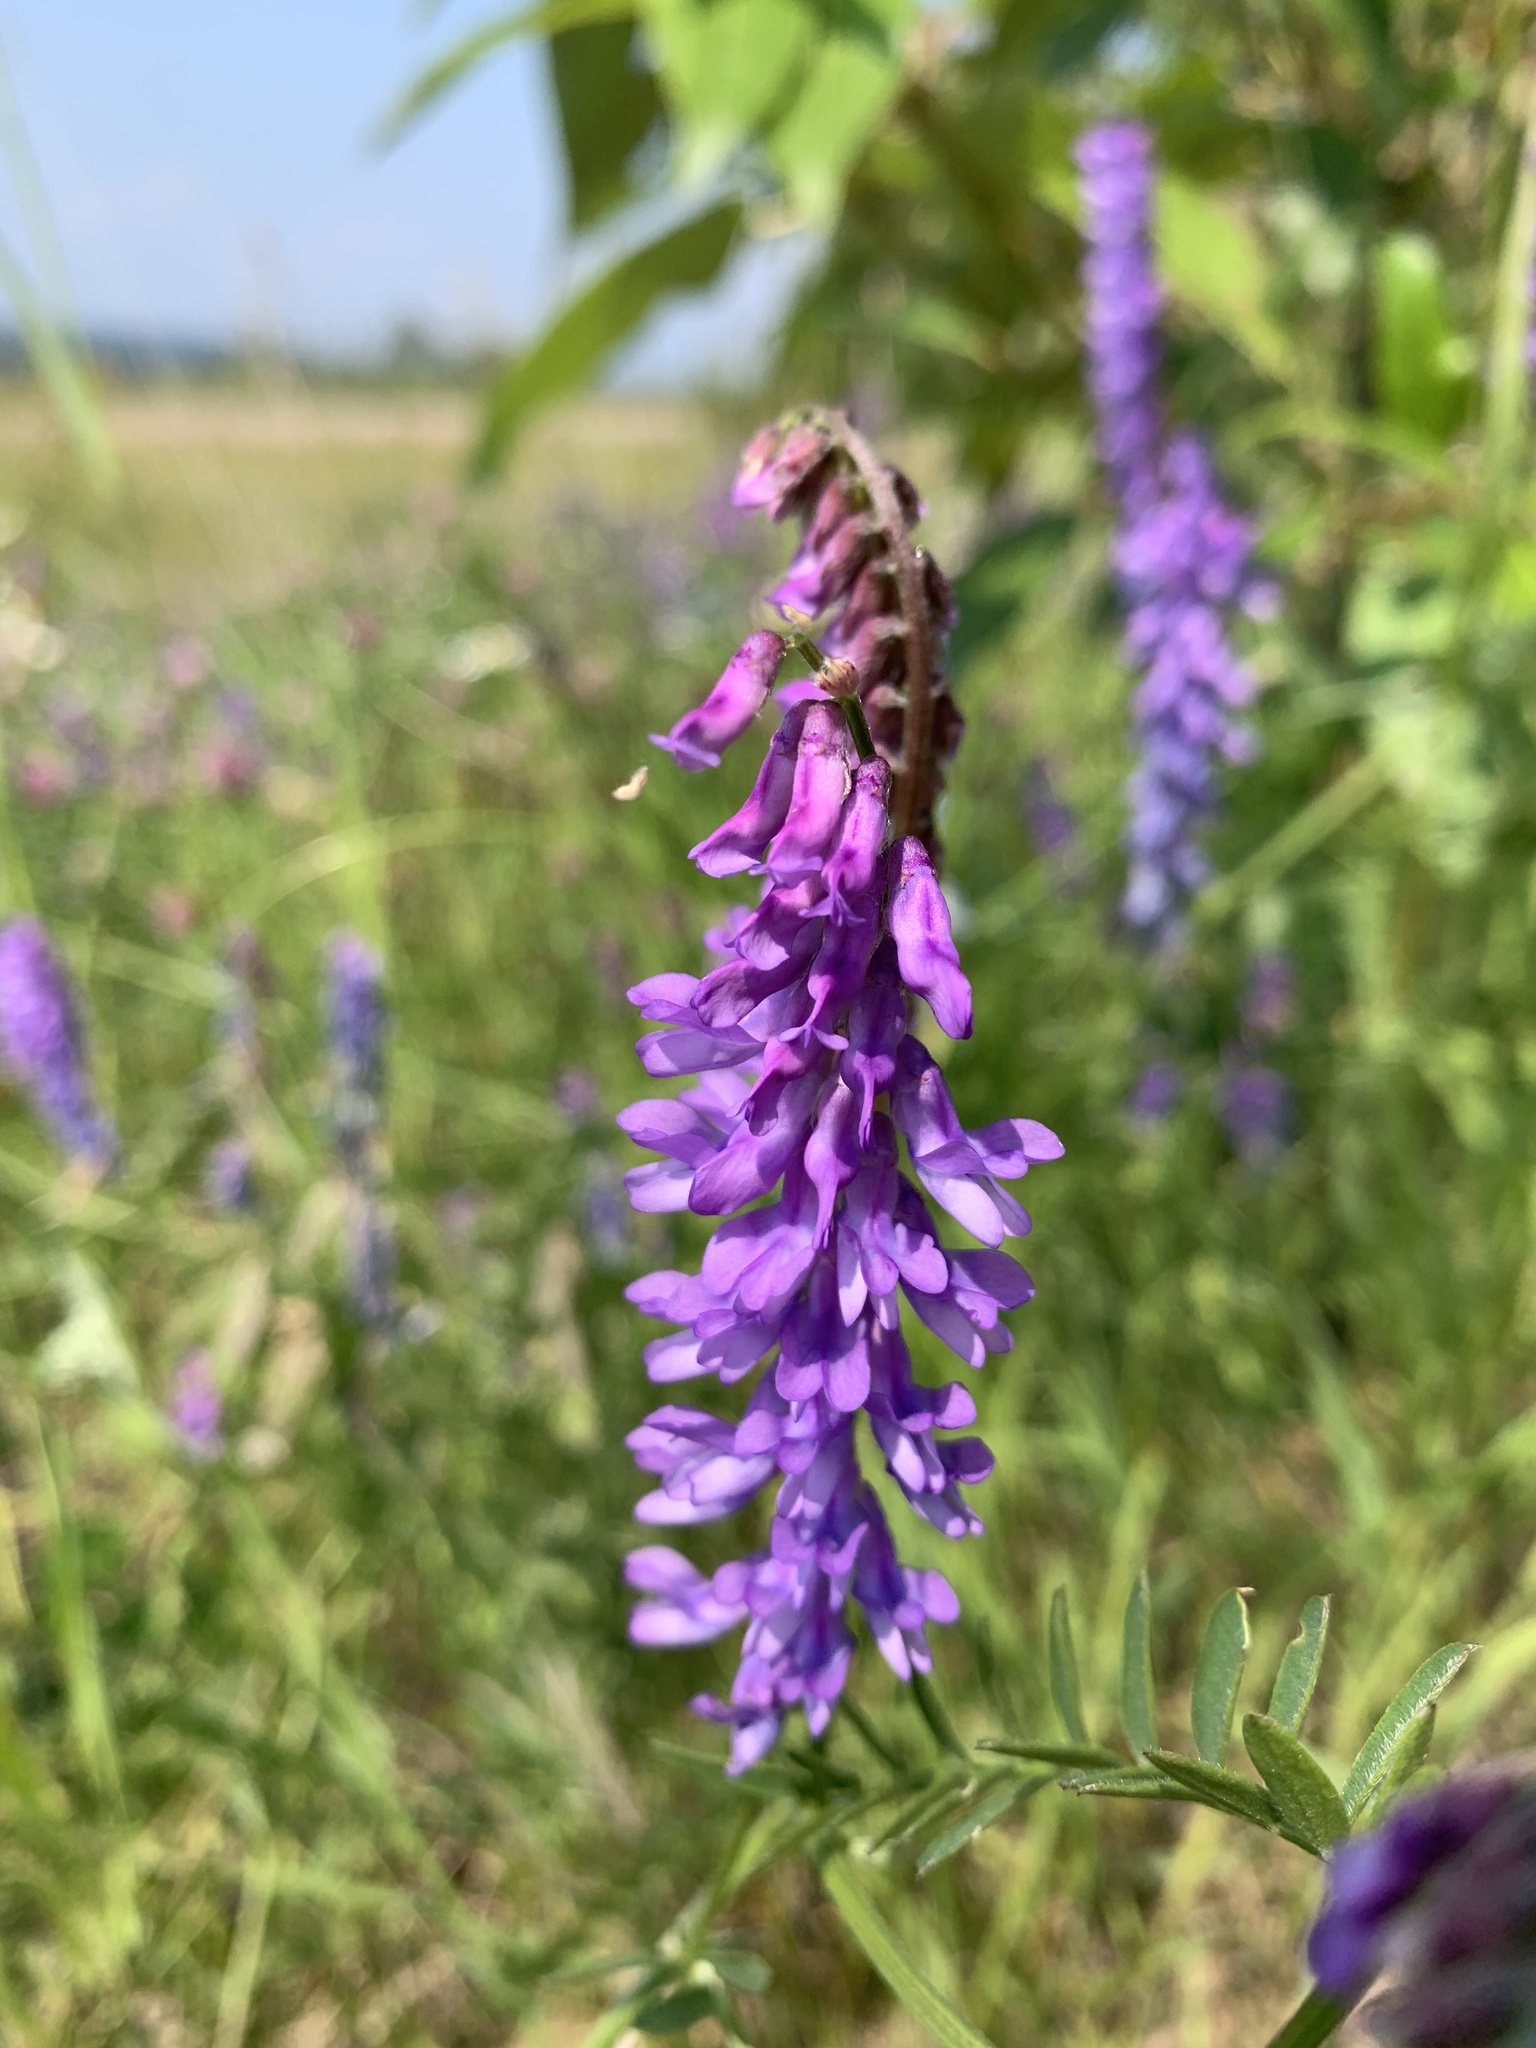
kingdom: Plantae
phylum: Tracheophyta
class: Magnoliopsida
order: Fabales
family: Fabaceae
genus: Vicia
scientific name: Vicia cracca
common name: Bird vetch
